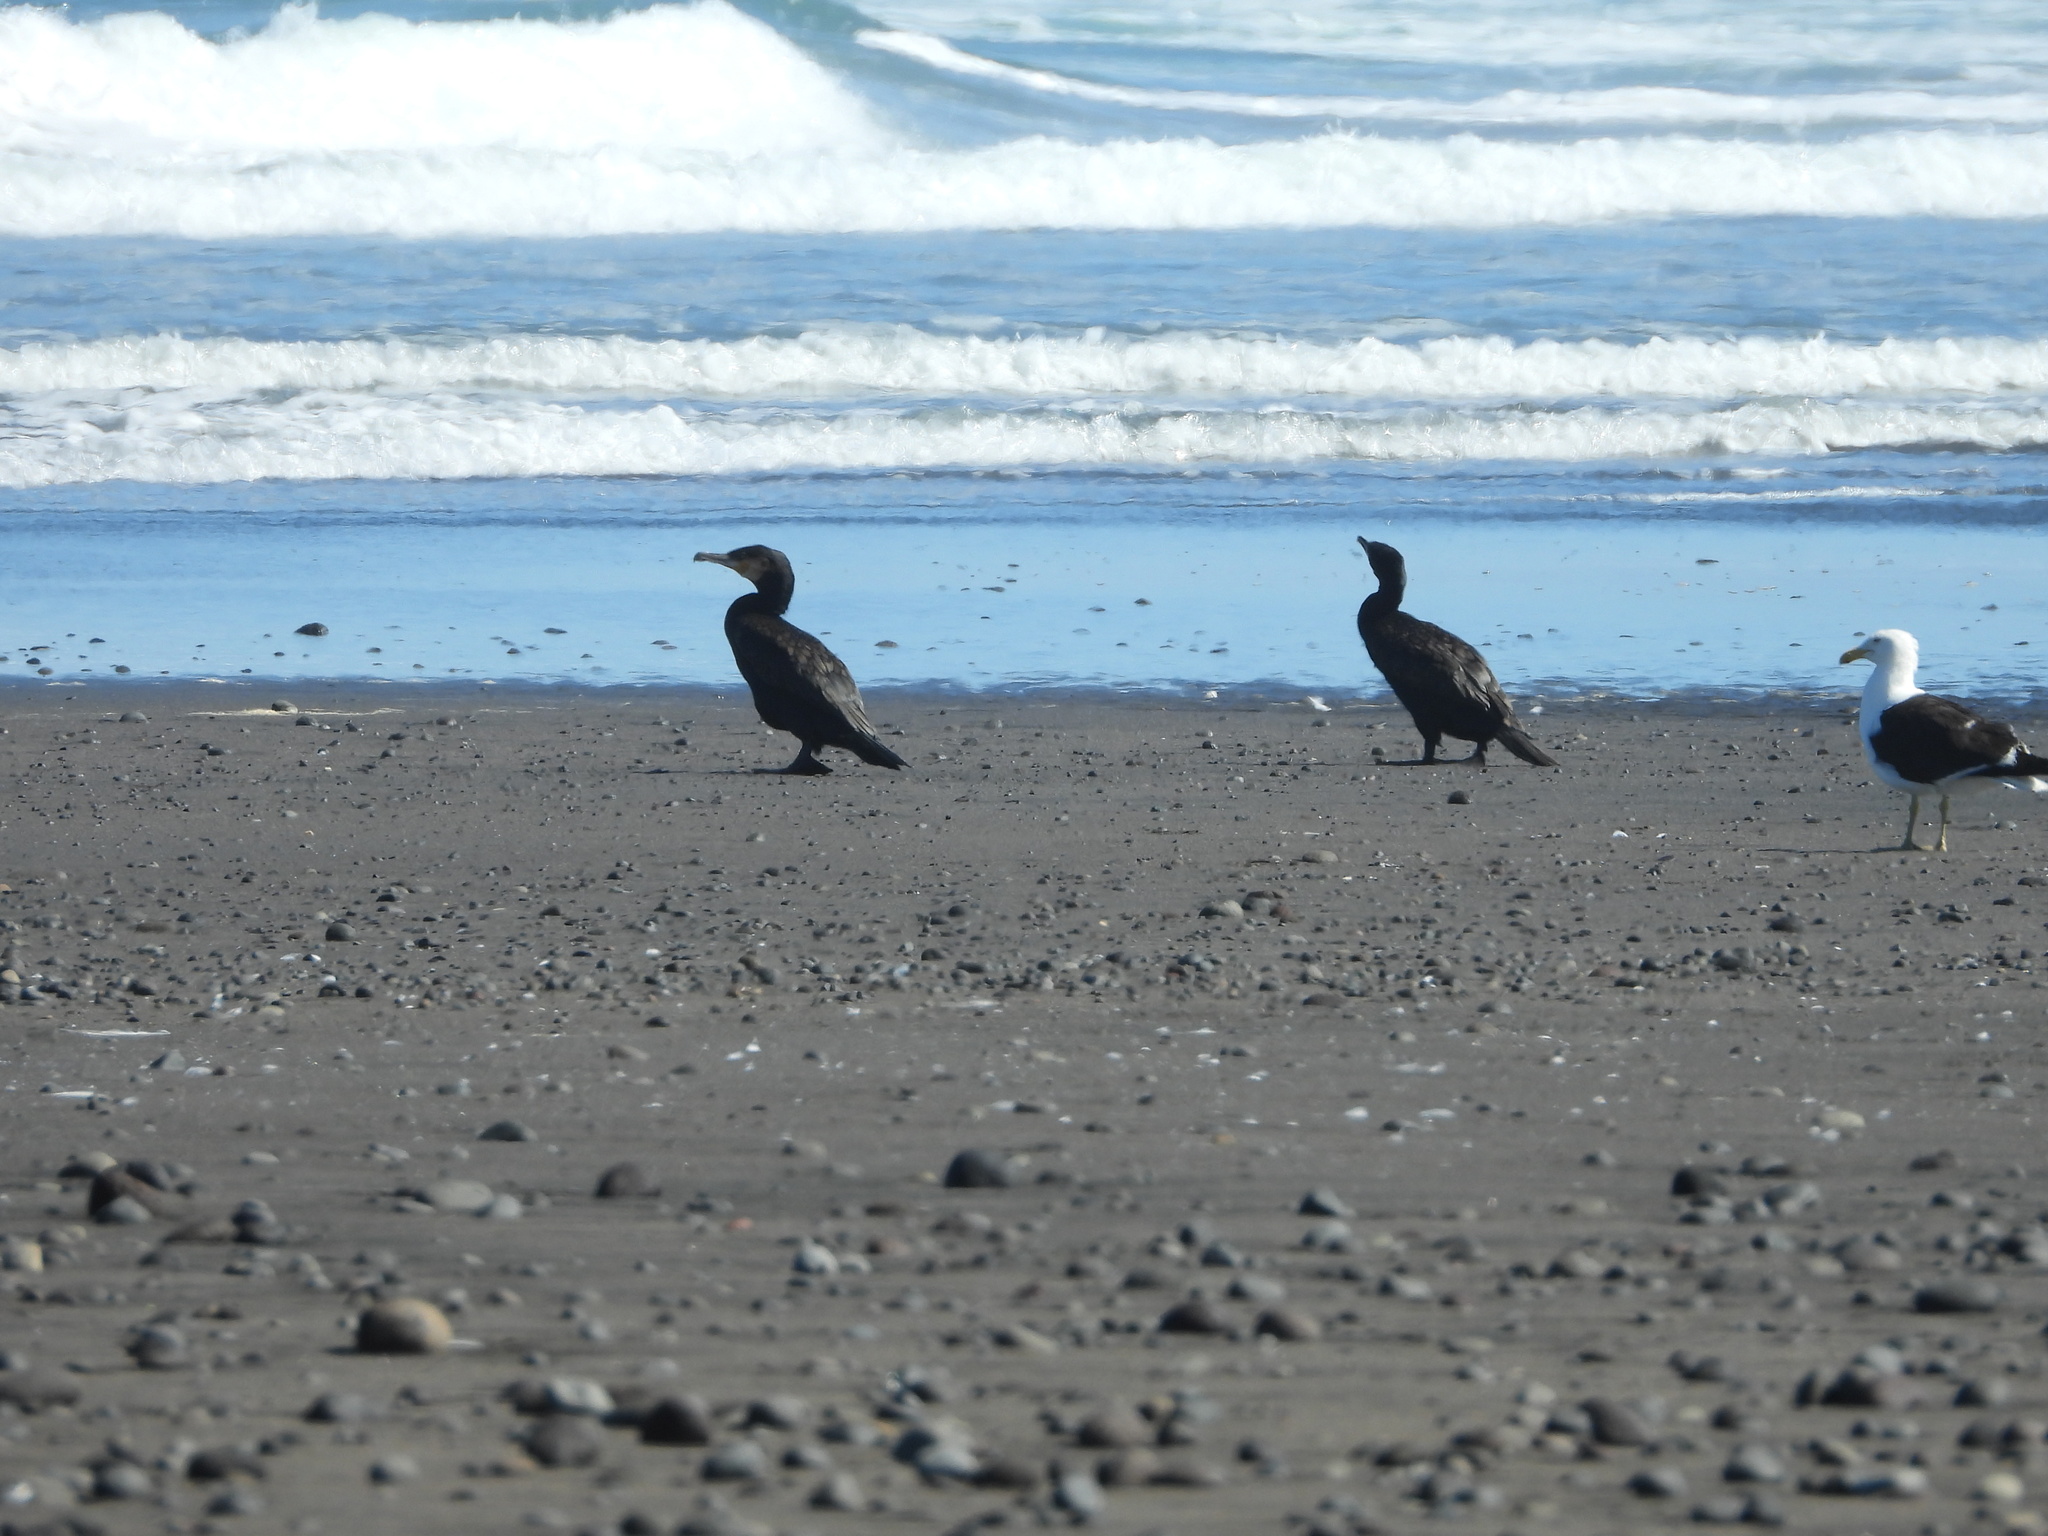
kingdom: Animalia
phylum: Chordata
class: Aves
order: Suliformes
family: Phalacrocoracidae
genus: Phalacrocorax
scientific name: Phalacrocorax carbo
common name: Great cormorant
